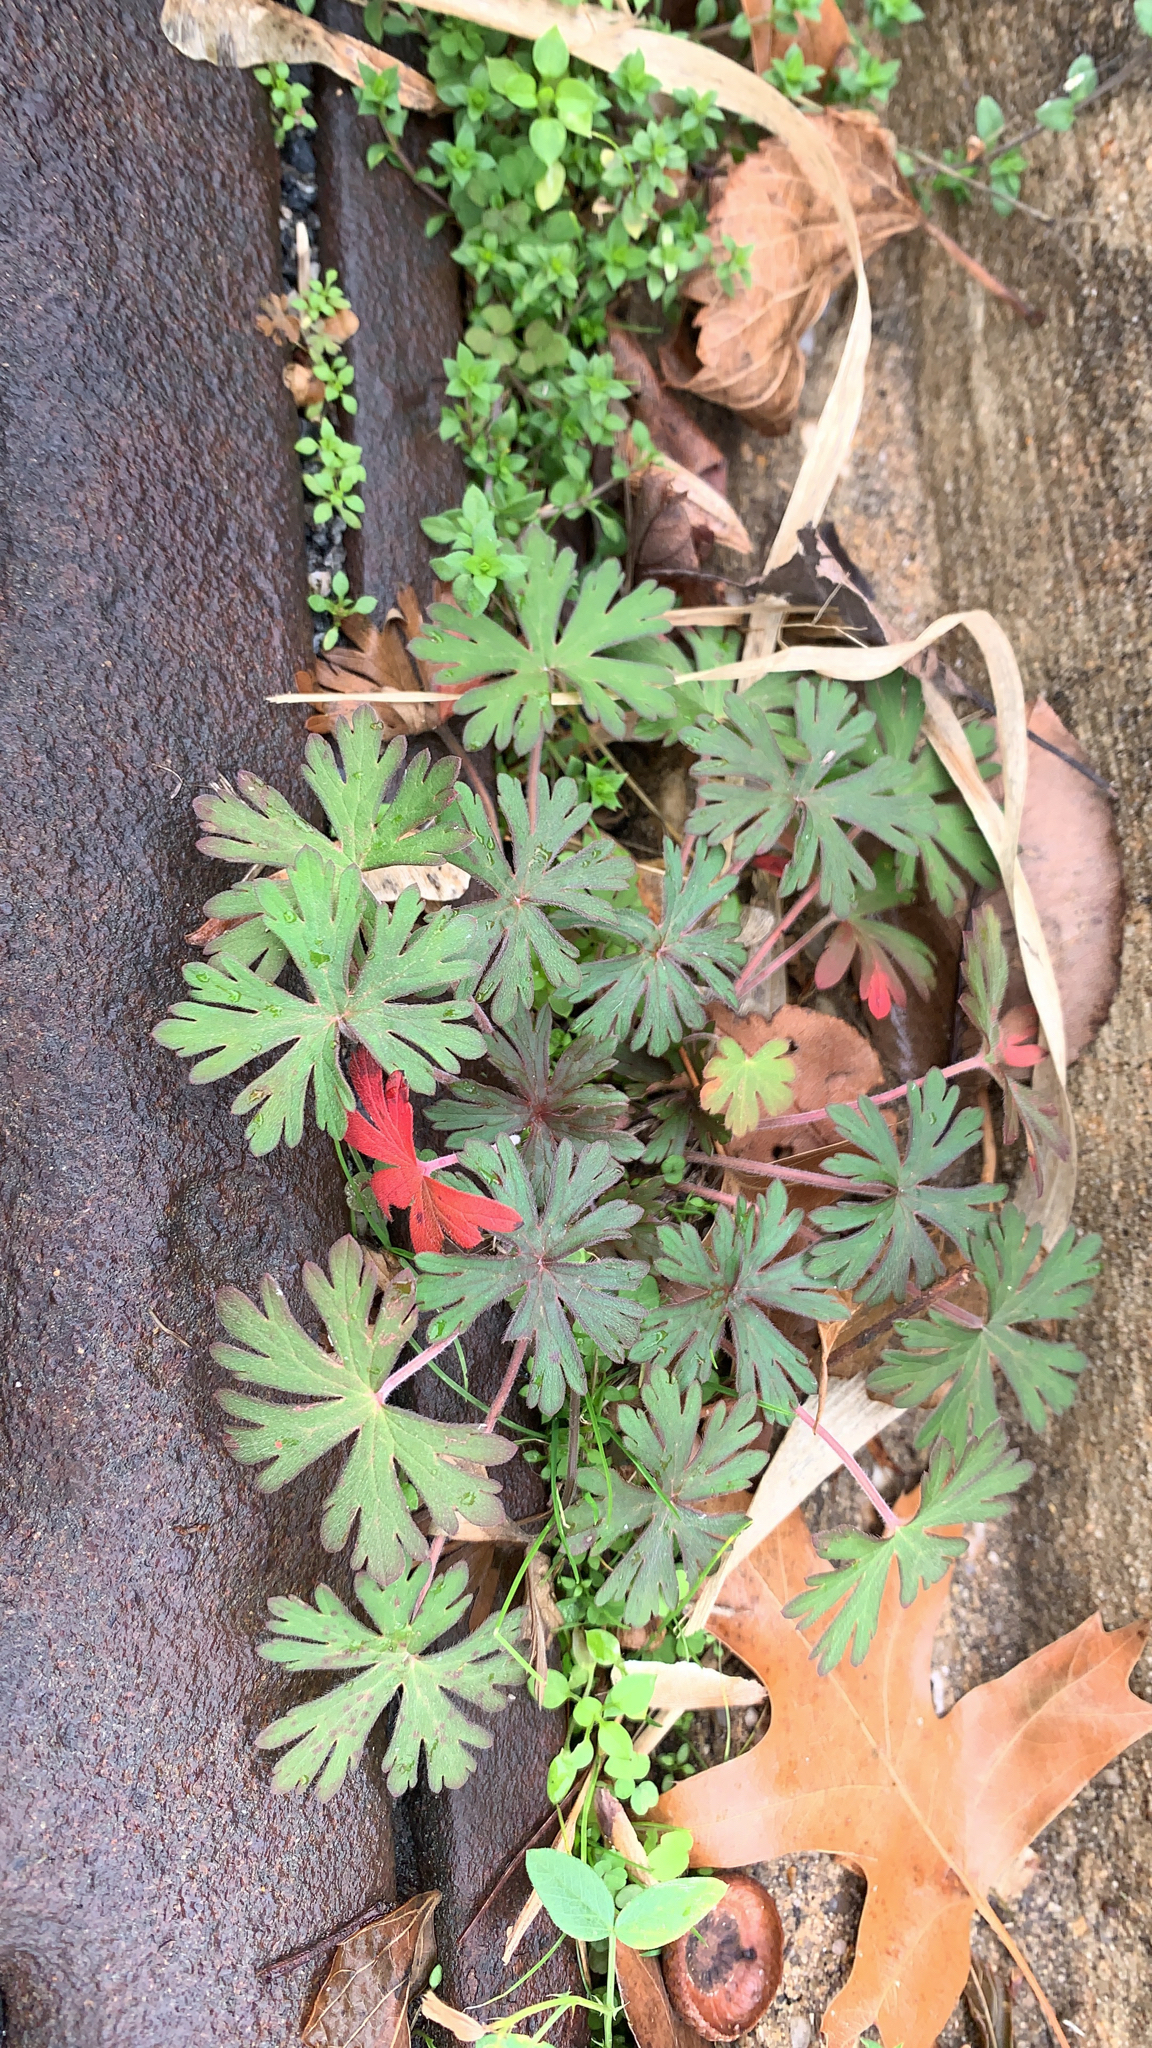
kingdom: Plantae
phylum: Tracheophyta
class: Magnoliopsida
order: Geraniales
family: Geraniaceae
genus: Geranium
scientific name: Geranium carolinianum
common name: Carolina crane's-bill
